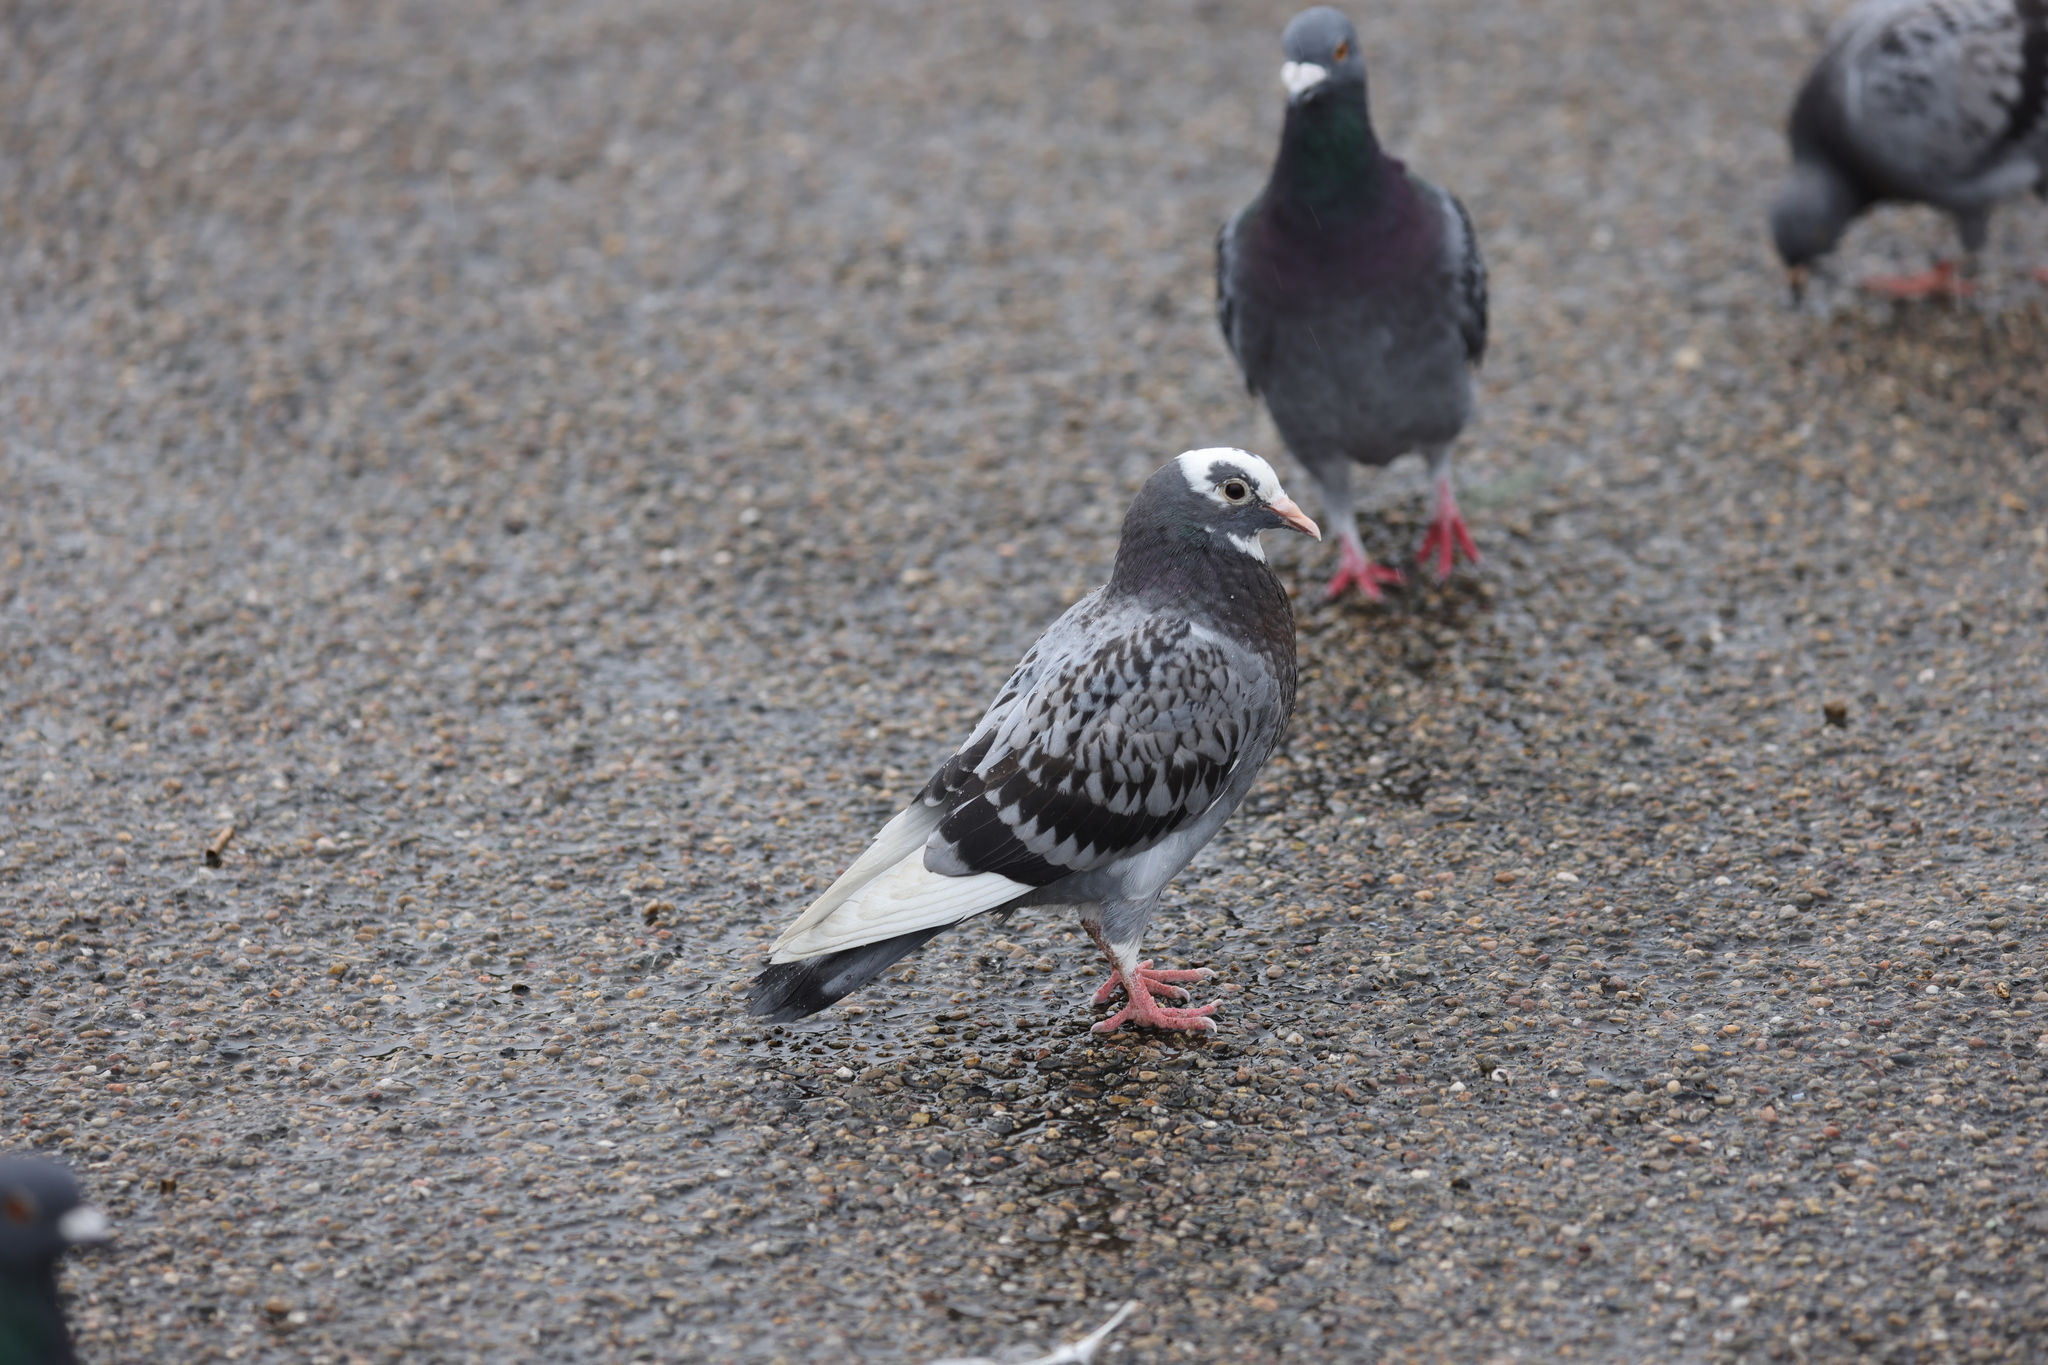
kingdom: Animalia
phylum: Chordata
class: Aves
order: Columbiformes
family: Columbidae
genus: Columba
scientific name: Columba livia
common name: Rock pigeon
